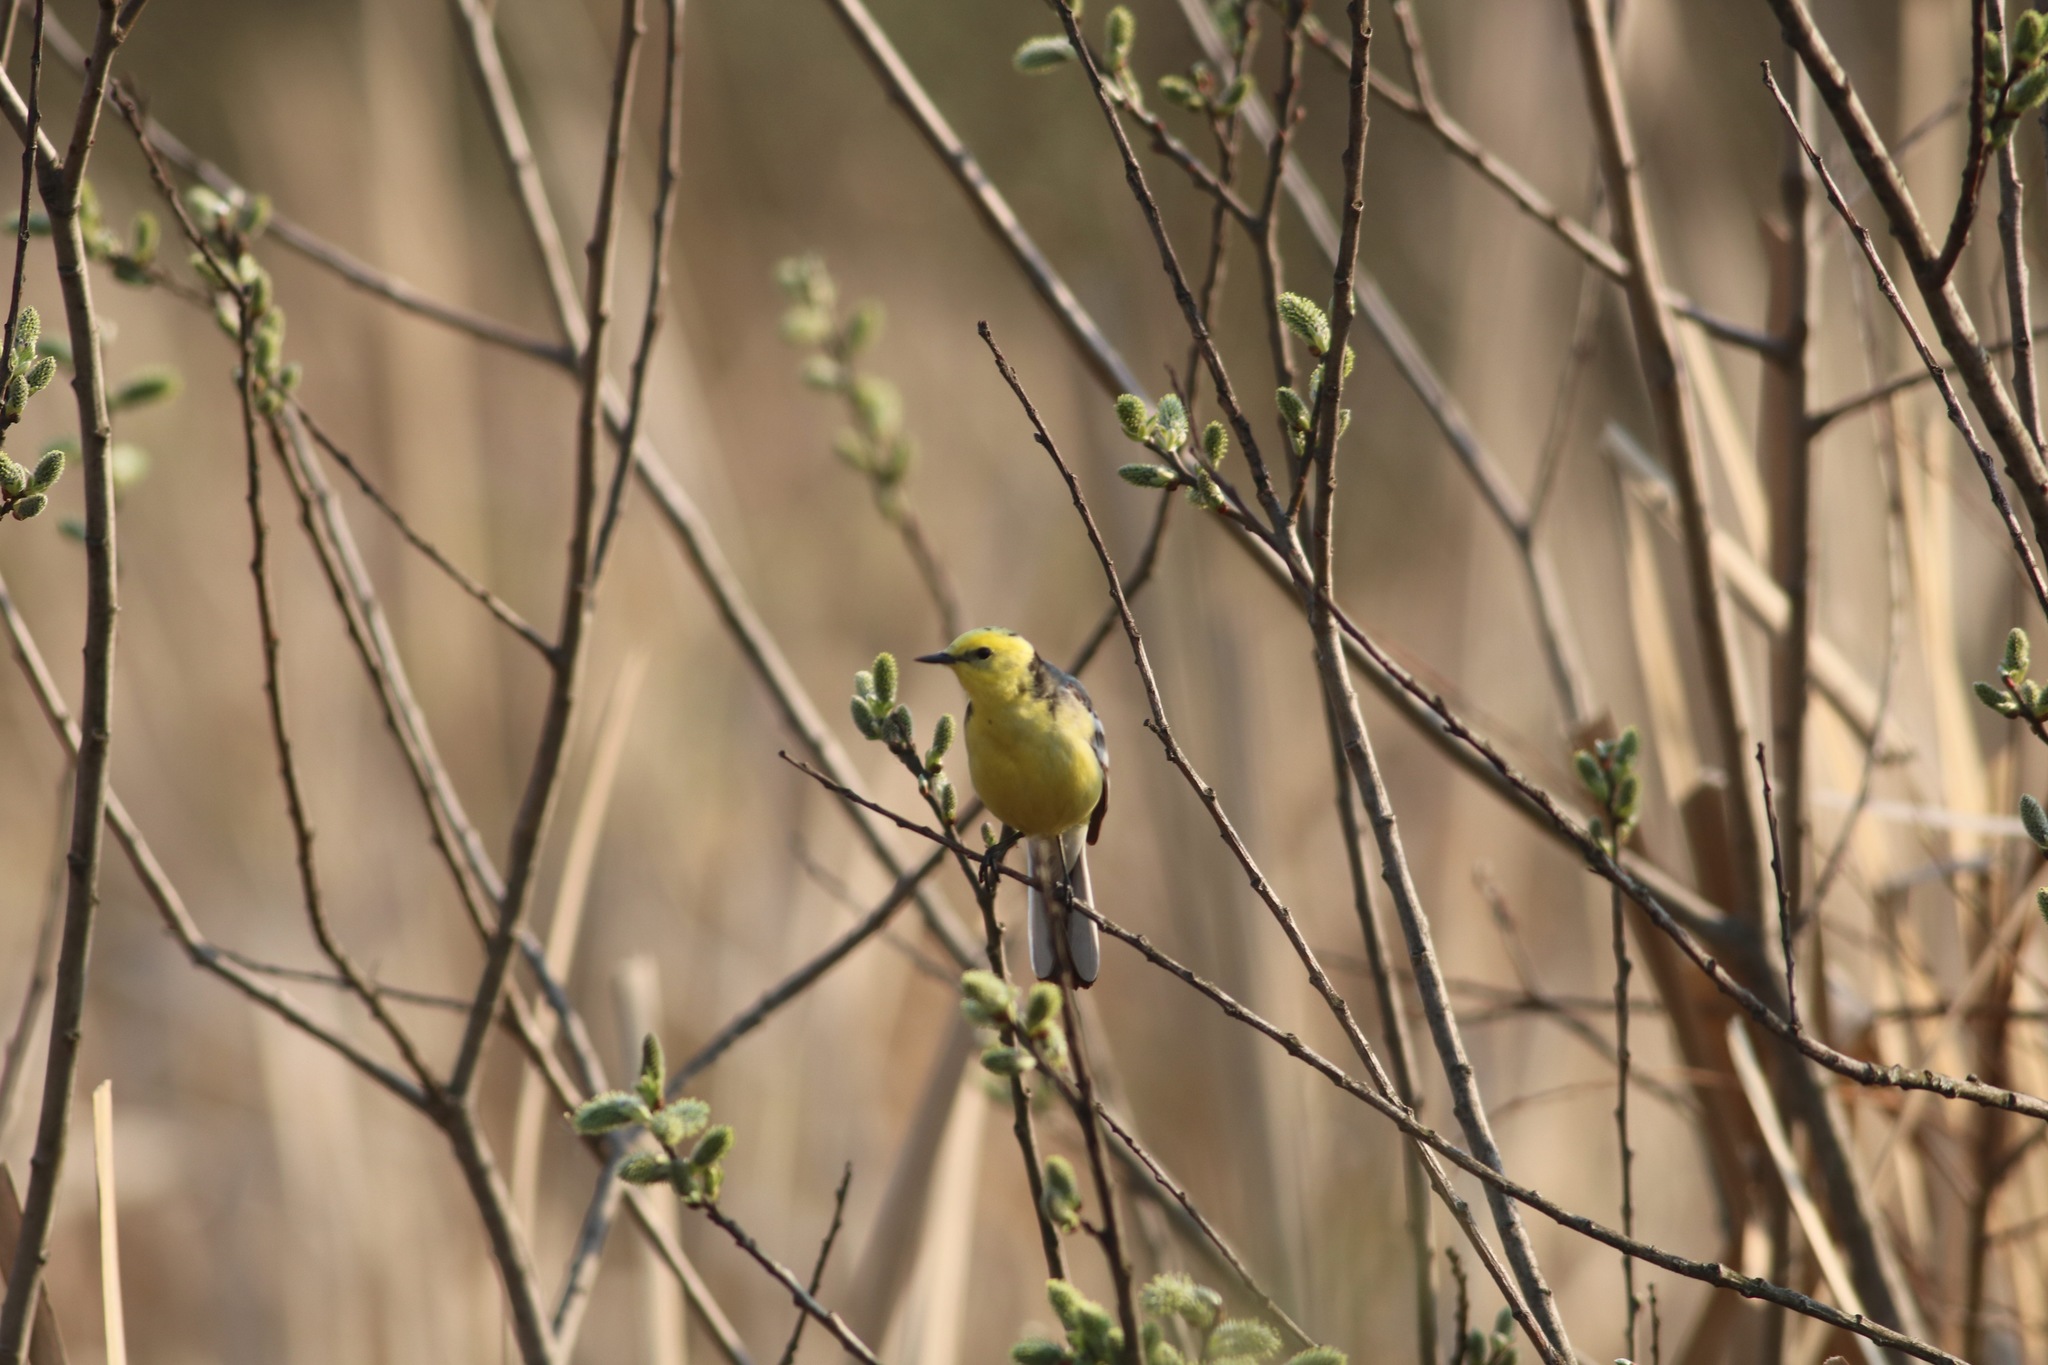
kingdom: Animalia
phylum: Chordata
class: Aves
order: Passeriformes
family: Motacillidae
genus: Motacilla
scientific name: Motacilla citreola
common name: Citrine wagtail
